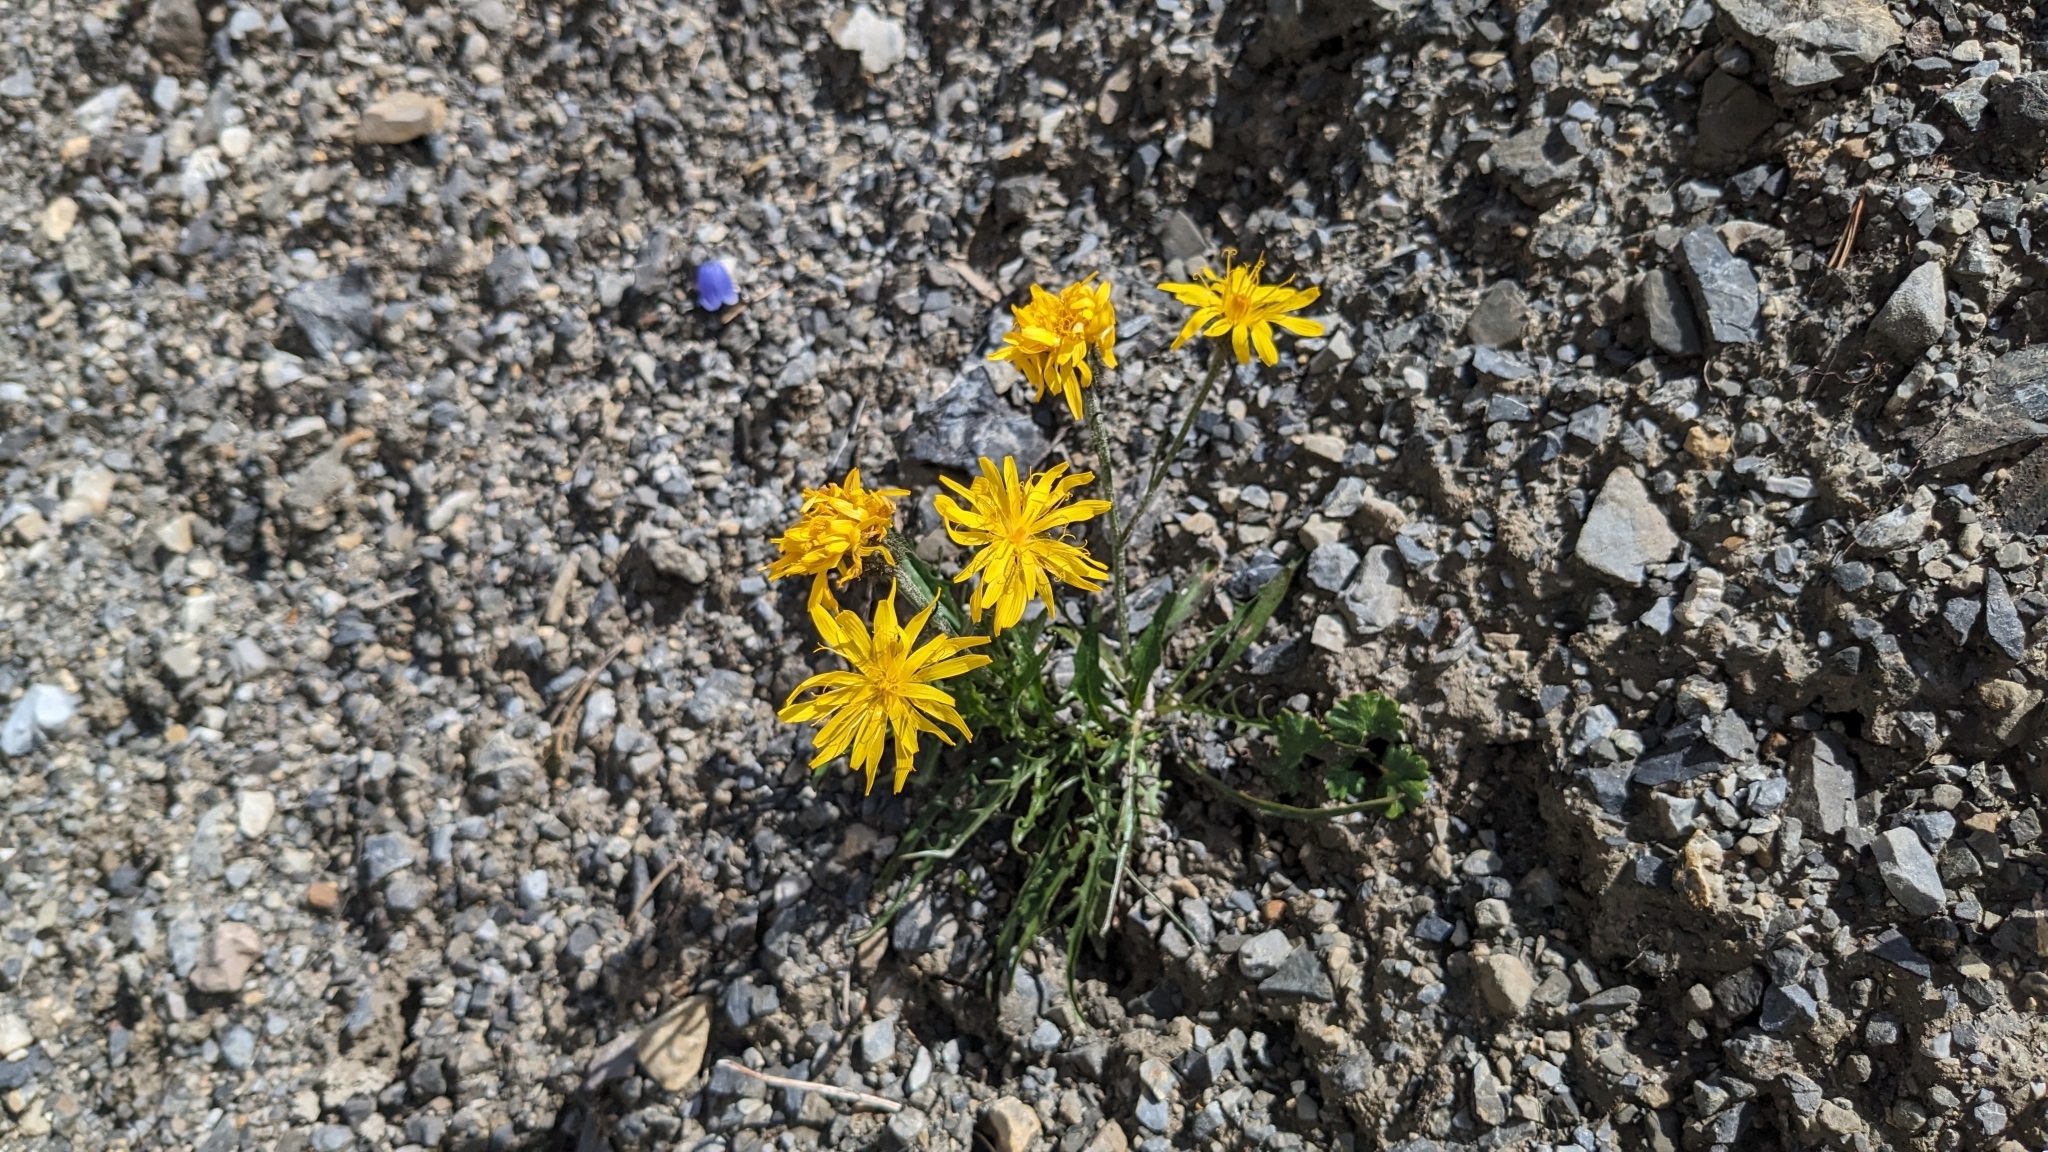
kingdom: Plantae
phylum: Tracheophyta
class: Magnoliopsida
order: Asterales
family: Asteraceae
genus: Crepis
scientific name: Crepis jacquinii
